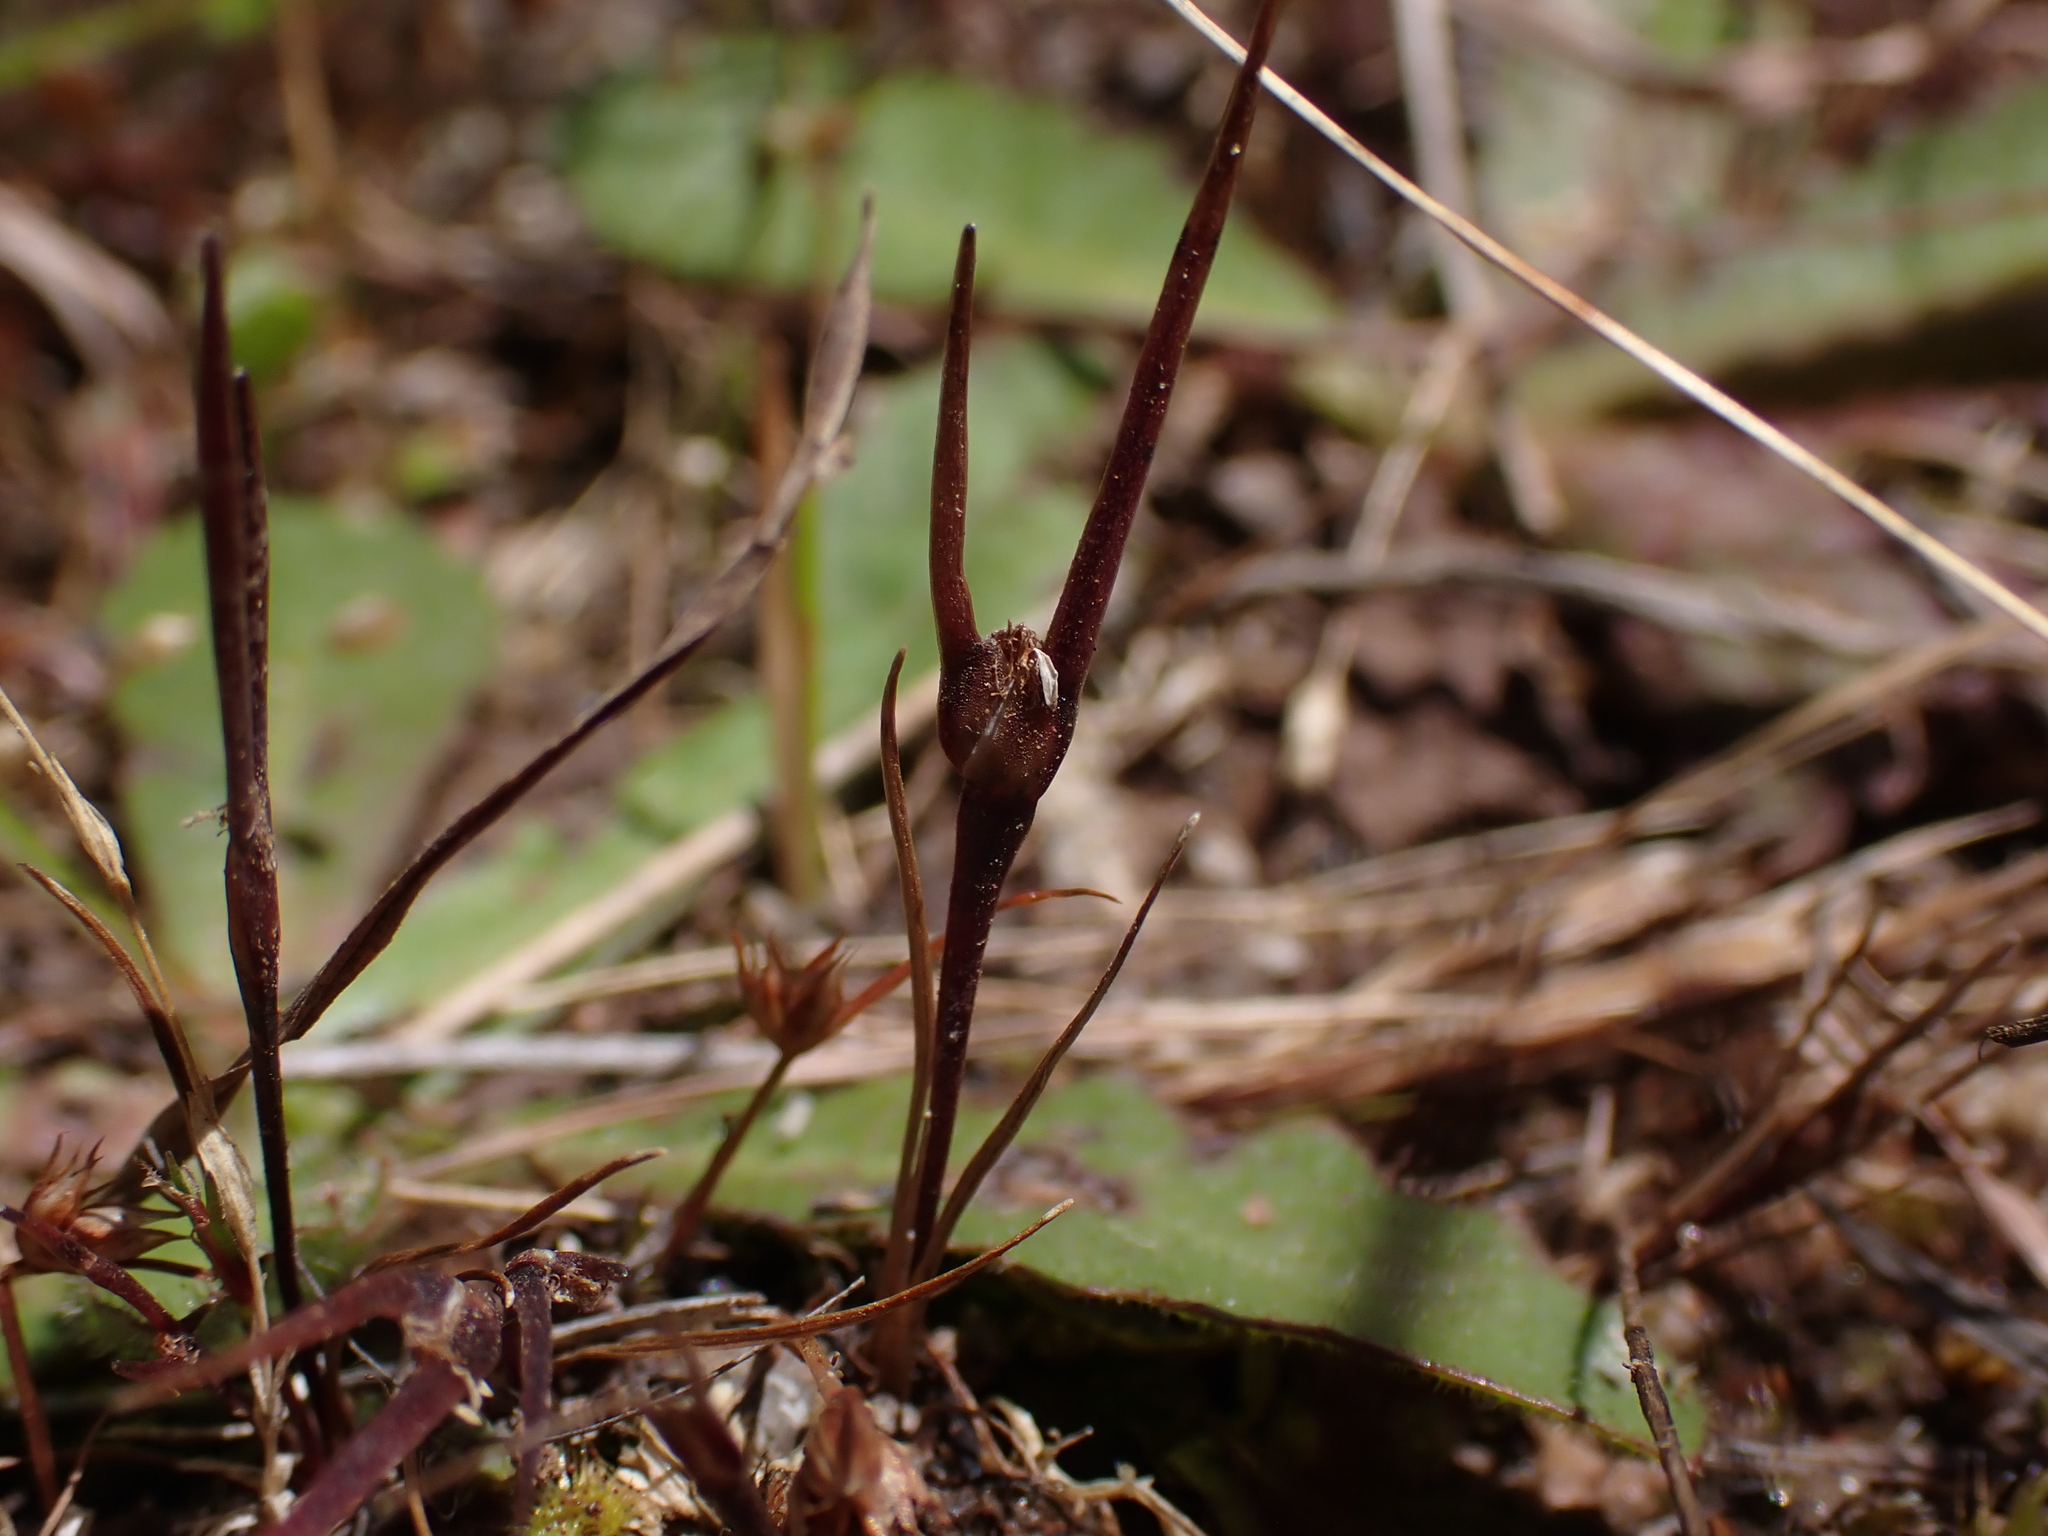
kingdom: Plantae
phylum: Tracheophyta
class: Liliopsida
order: Poales
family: Restionaceae
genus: Centrolepis
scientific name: Centrolepis aristata
